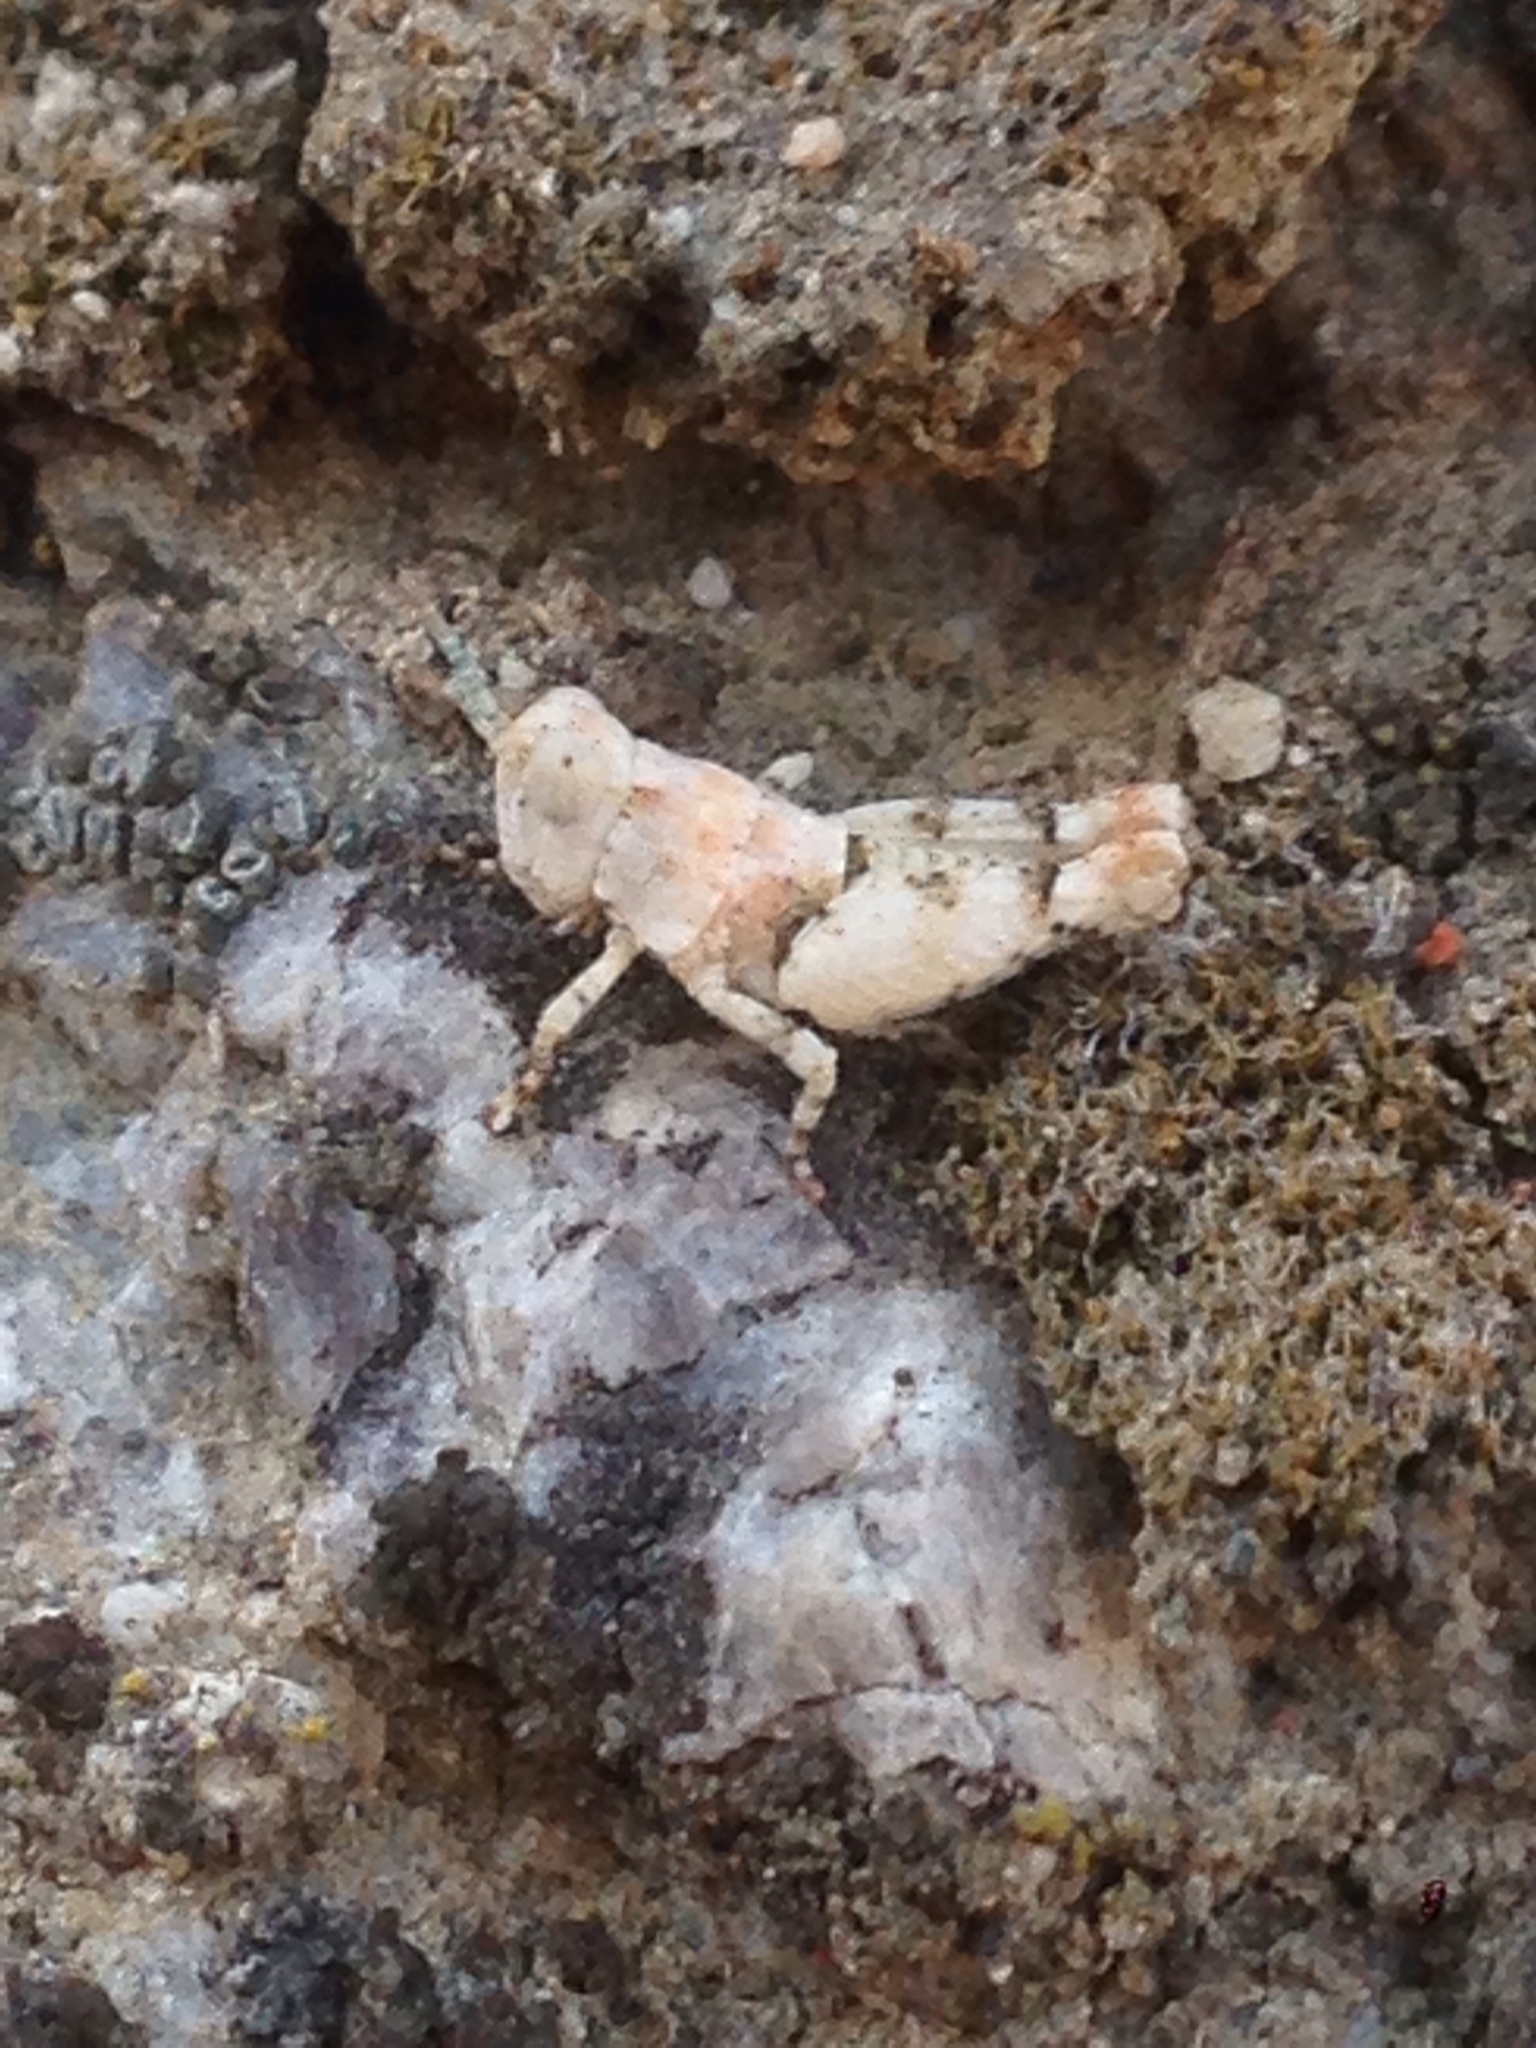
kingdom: Animalia
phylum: Arthropoda
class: Insecta
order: Orthoptera
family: Acrididae
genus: Cibolacris
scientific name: Cibolacris parviceps
